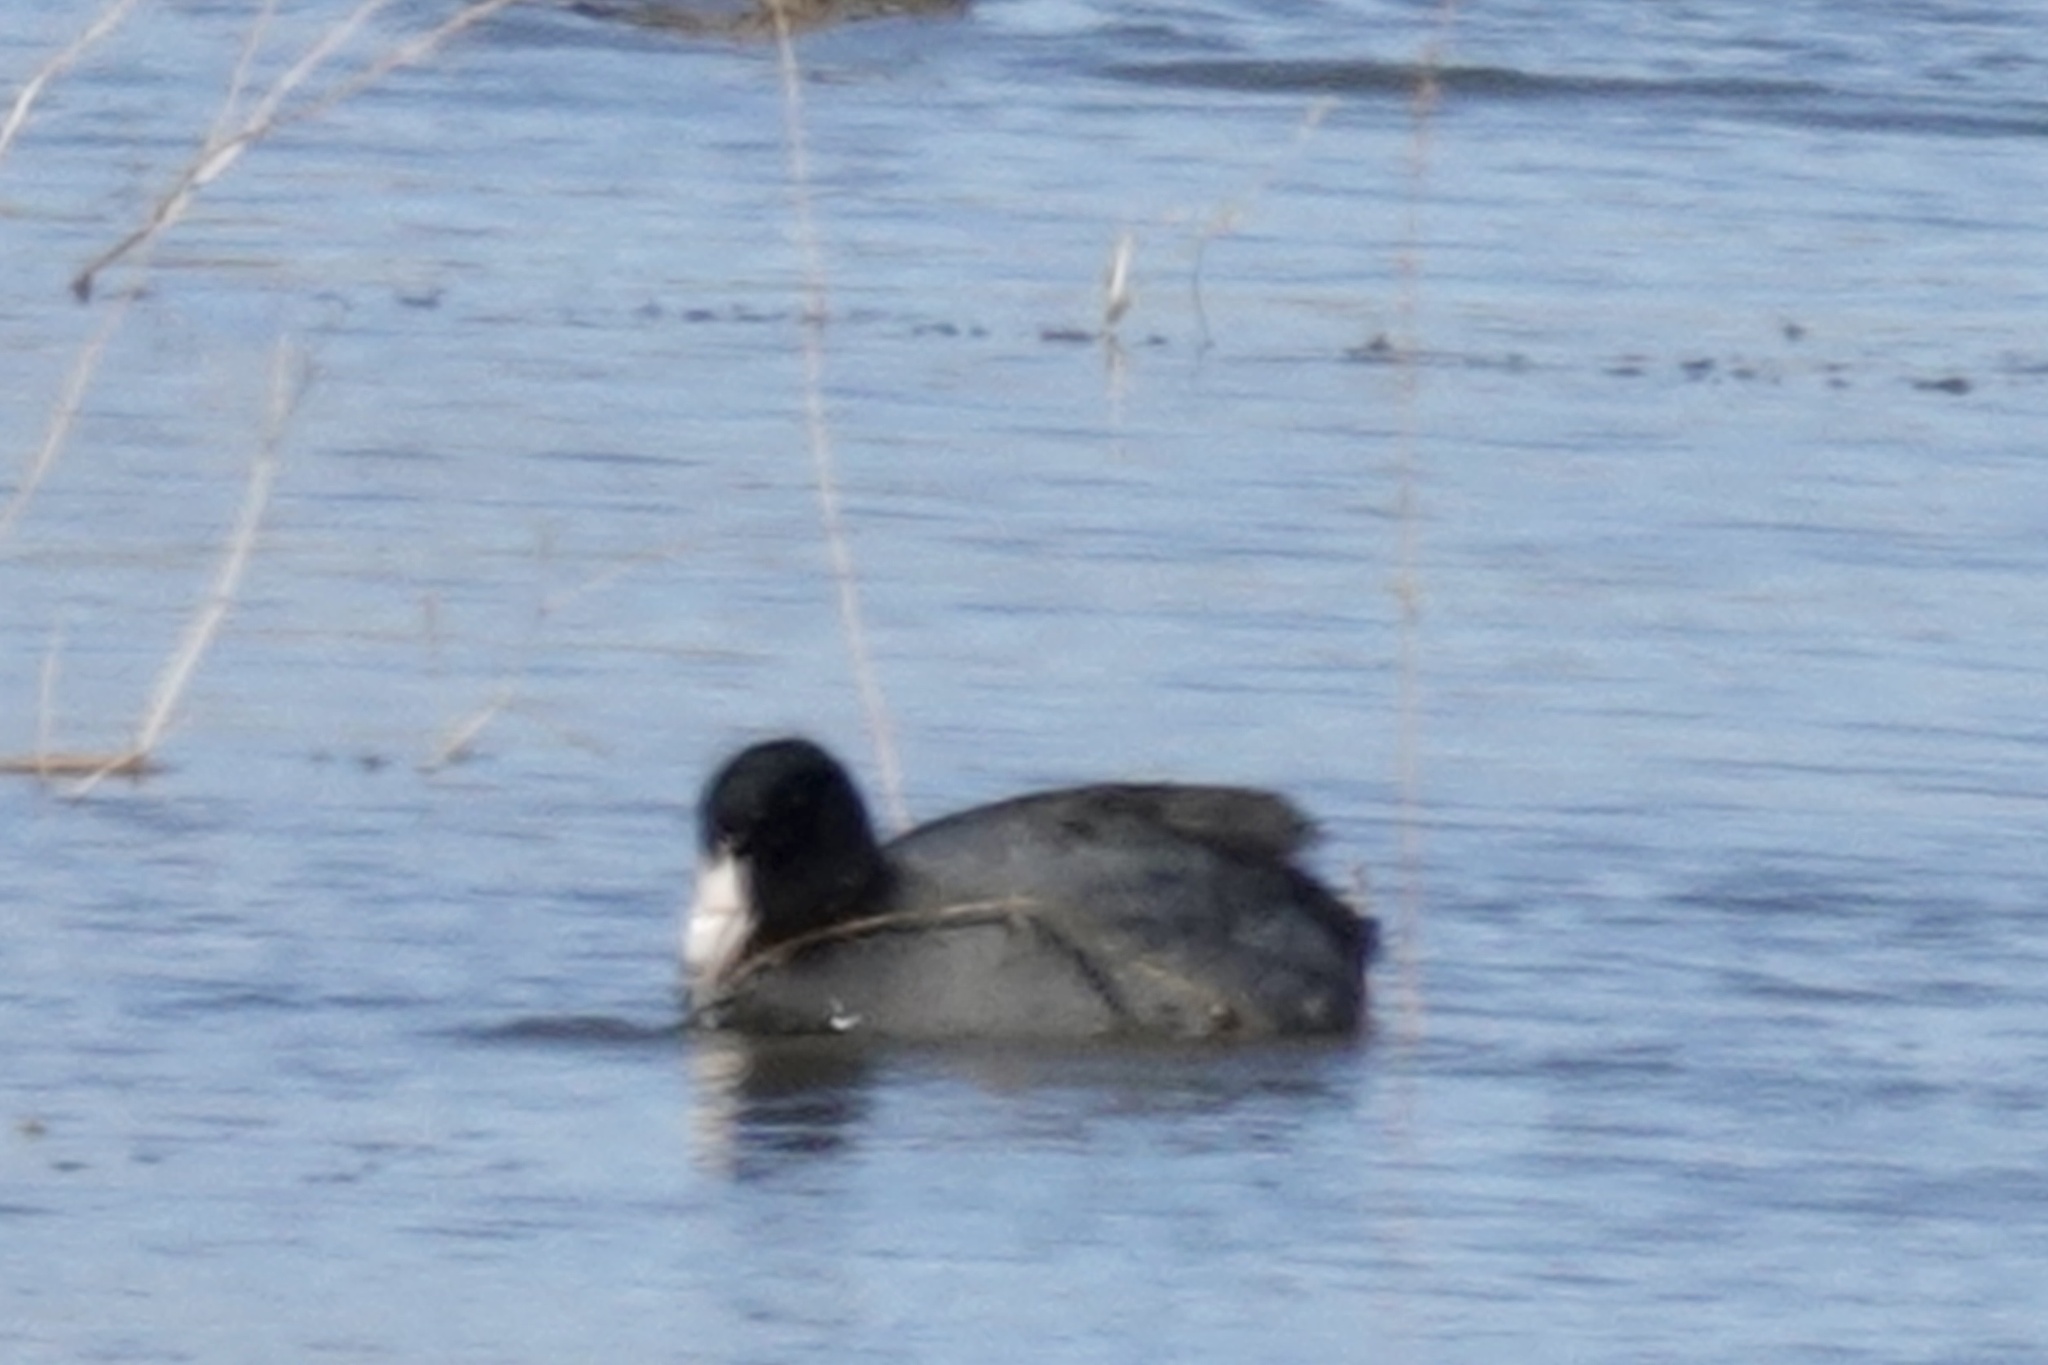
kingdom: Animalia
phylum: Chordata
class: Aves
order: Gruiformes
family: Rallidae
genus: Fulica
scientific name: Fulica americana
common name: American coot
